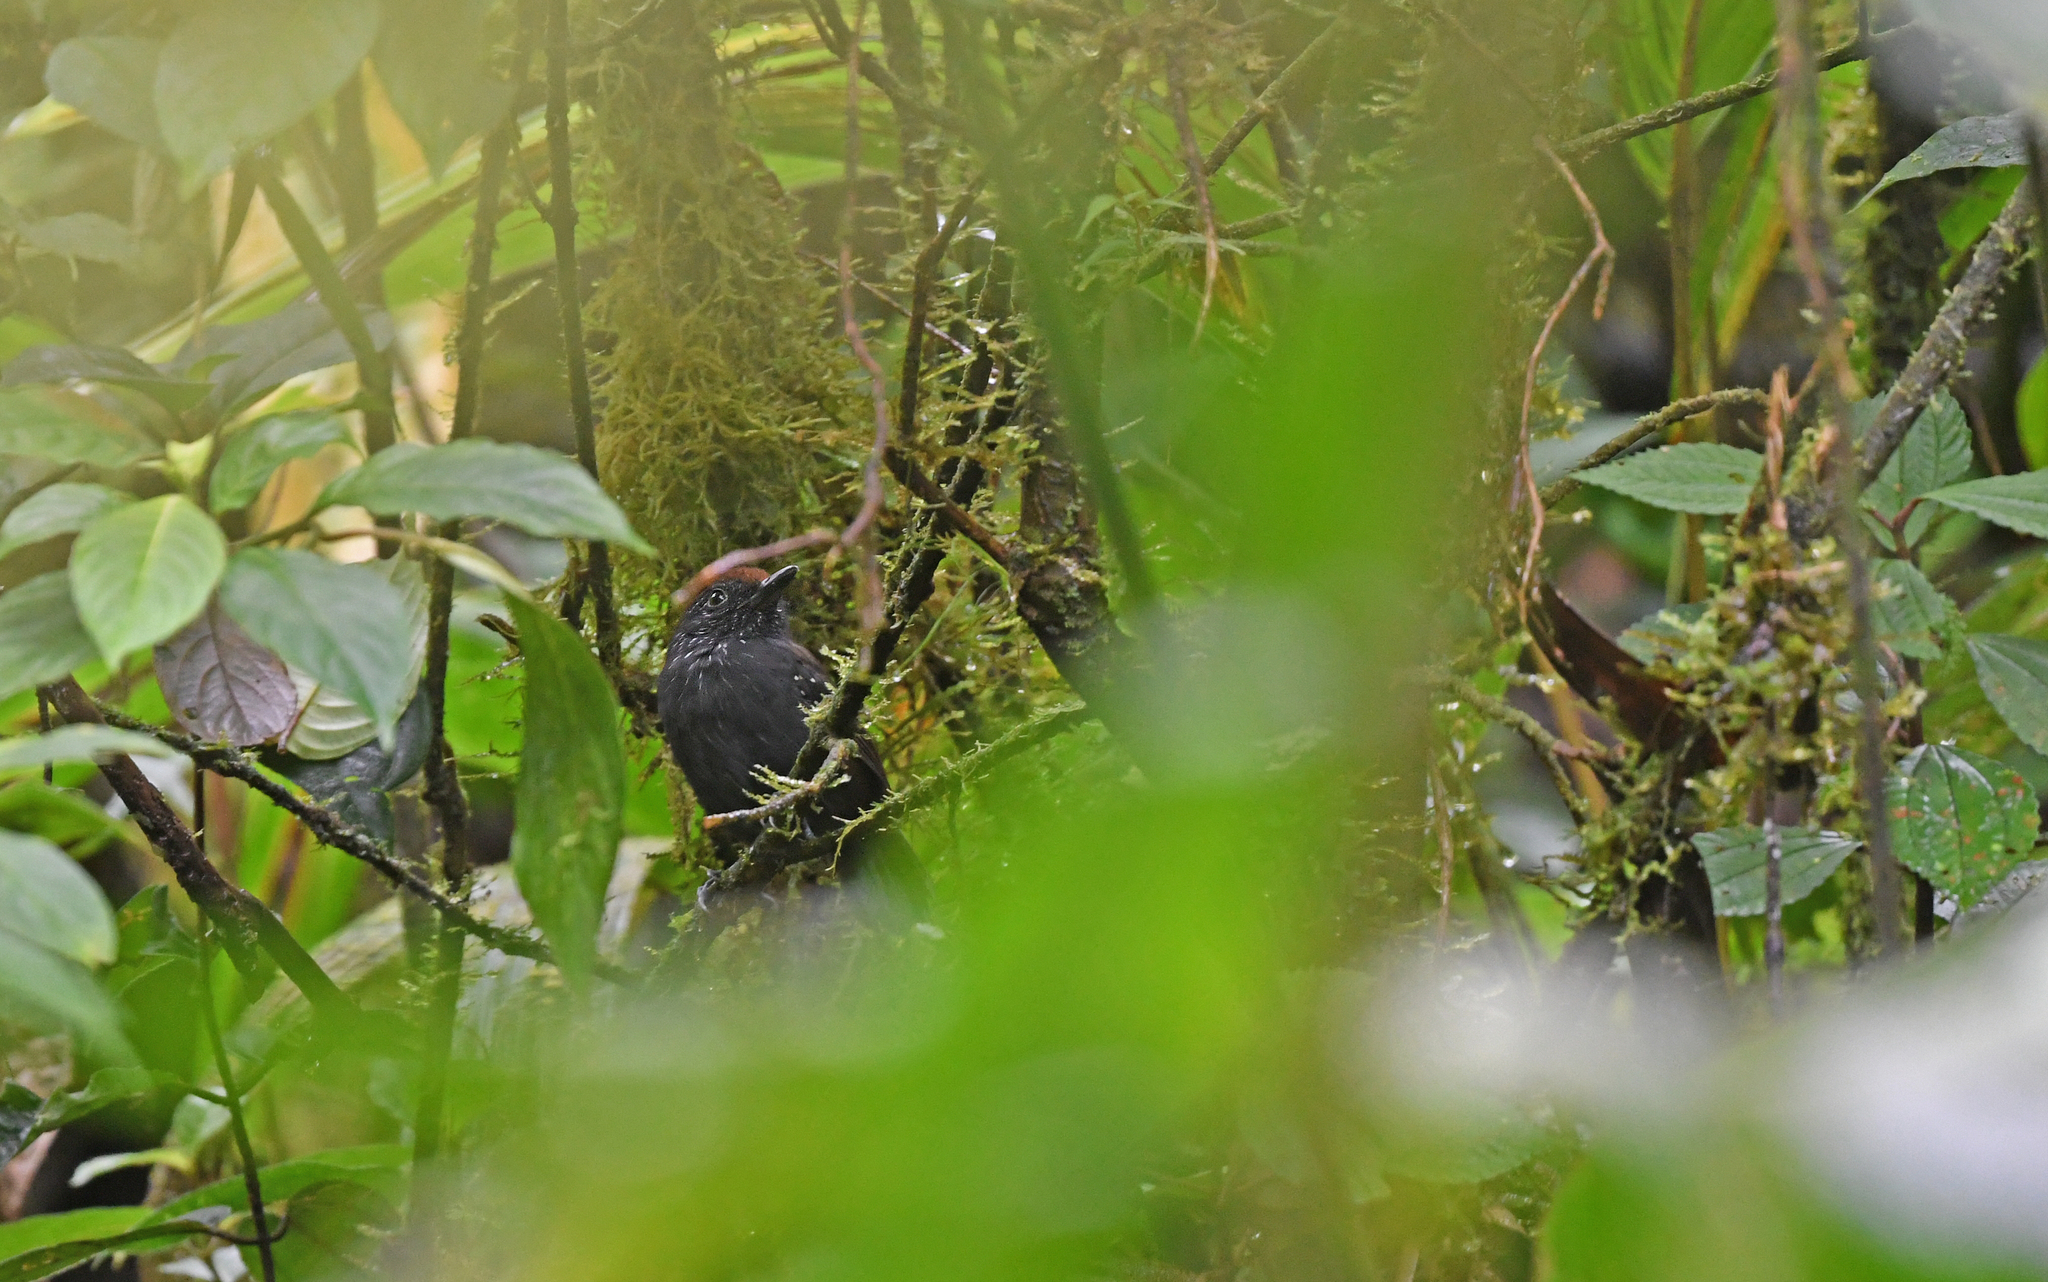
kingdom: Animalia
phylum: Chordata
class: Aves
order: Passeriformes
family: Thamnophilidae
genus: Dysithamnus
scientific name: Dysithamnus occidentalis
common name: Bicolored antvireo
